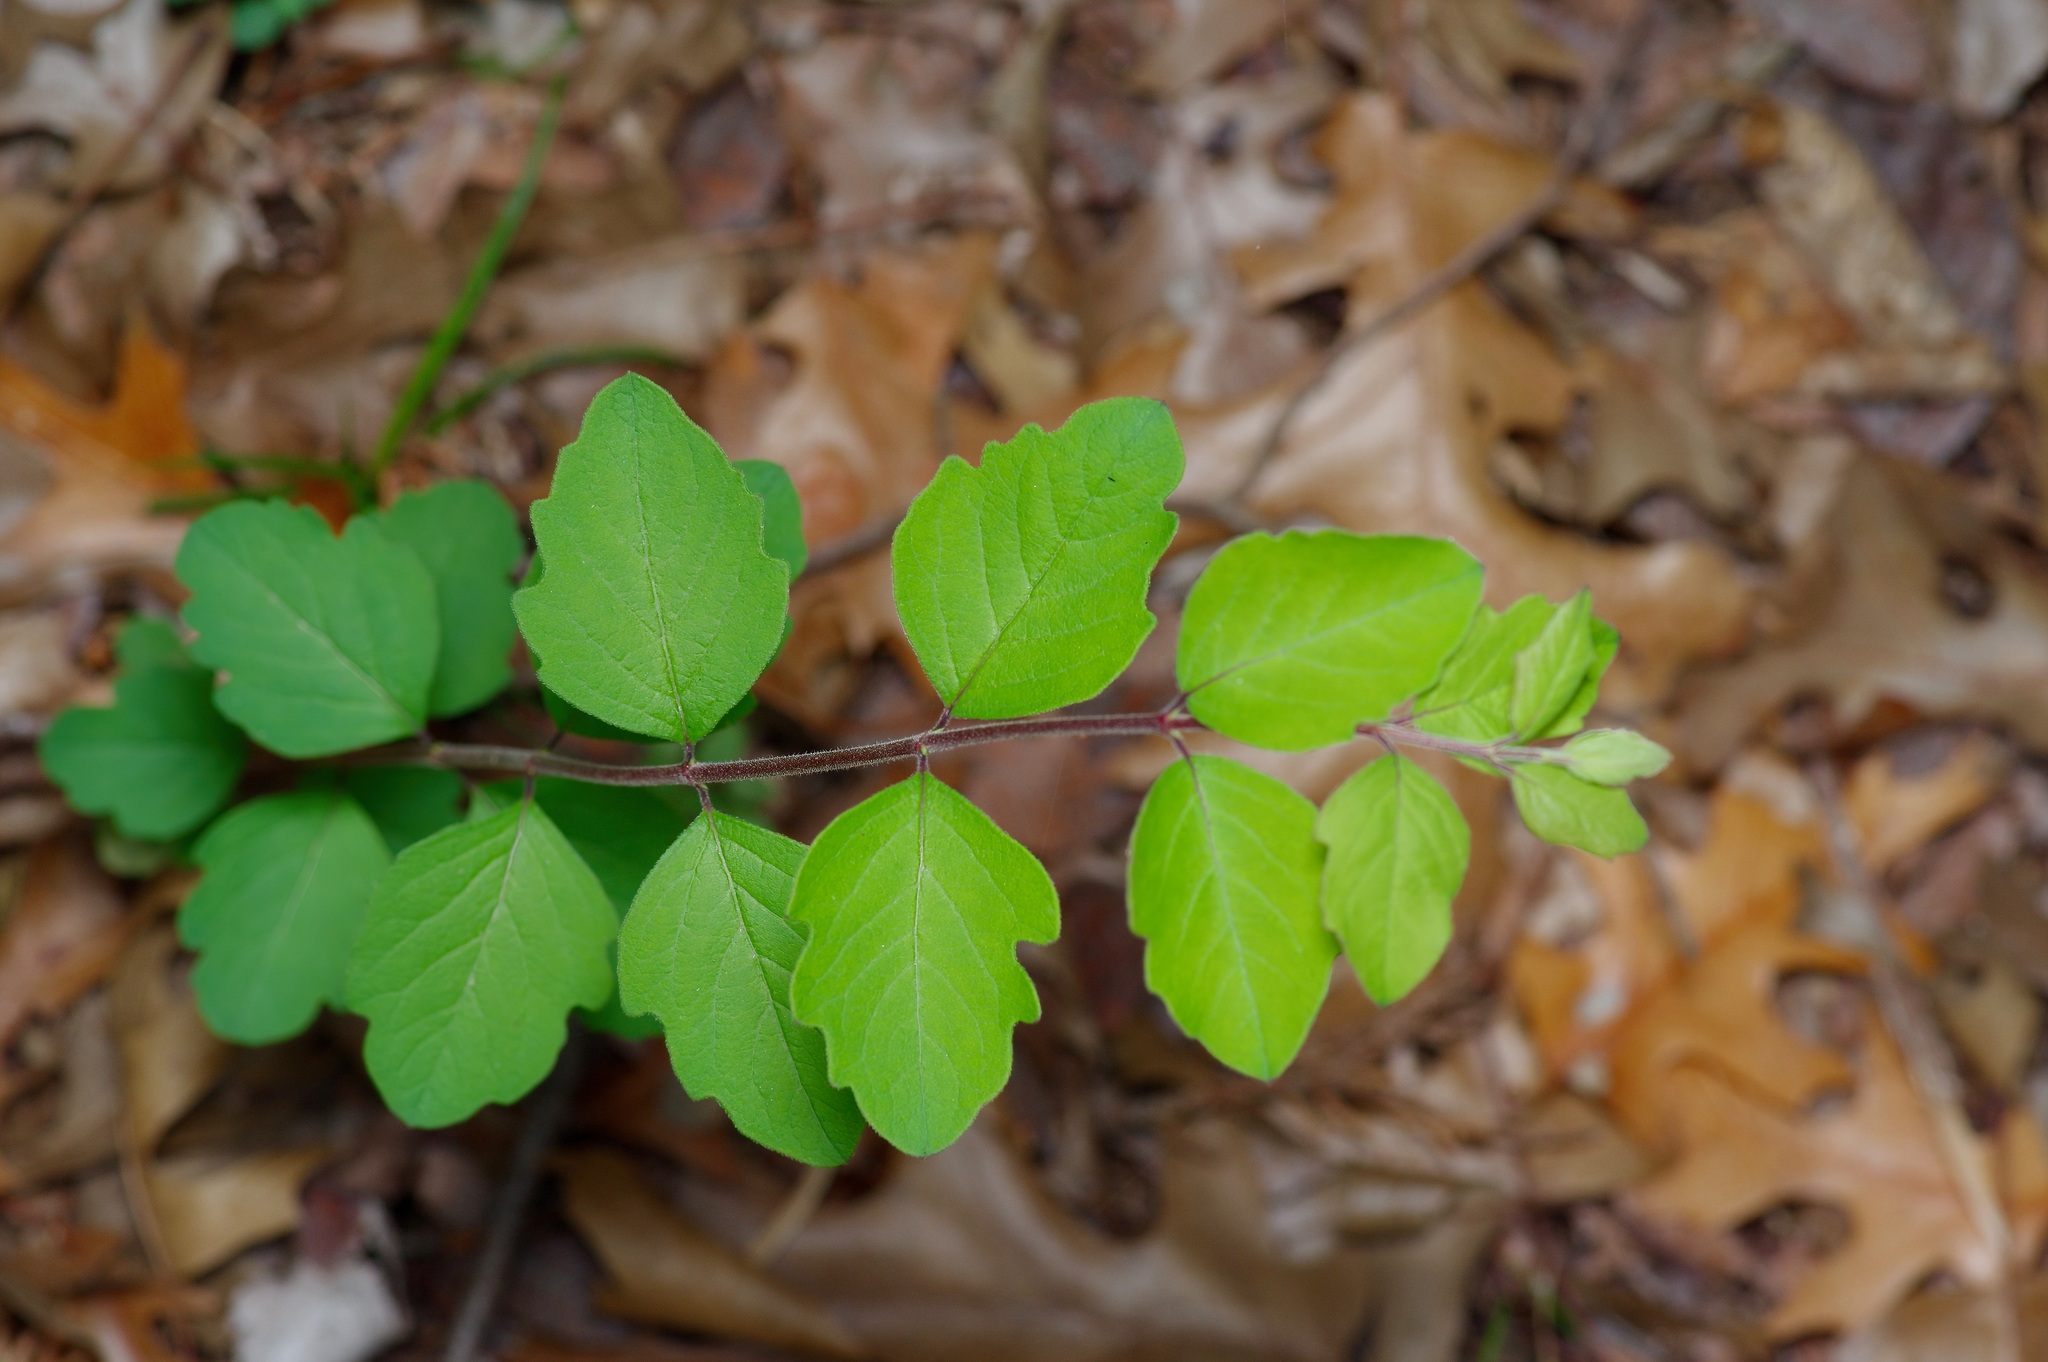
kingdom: Plantae
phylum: Tracheophyta
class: Magnoliopsida
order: Dipsacales
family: Caprifoliaceae
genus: Symphoricarpos
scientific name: Symphoricarpos orbiculatus
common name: Coralberry
